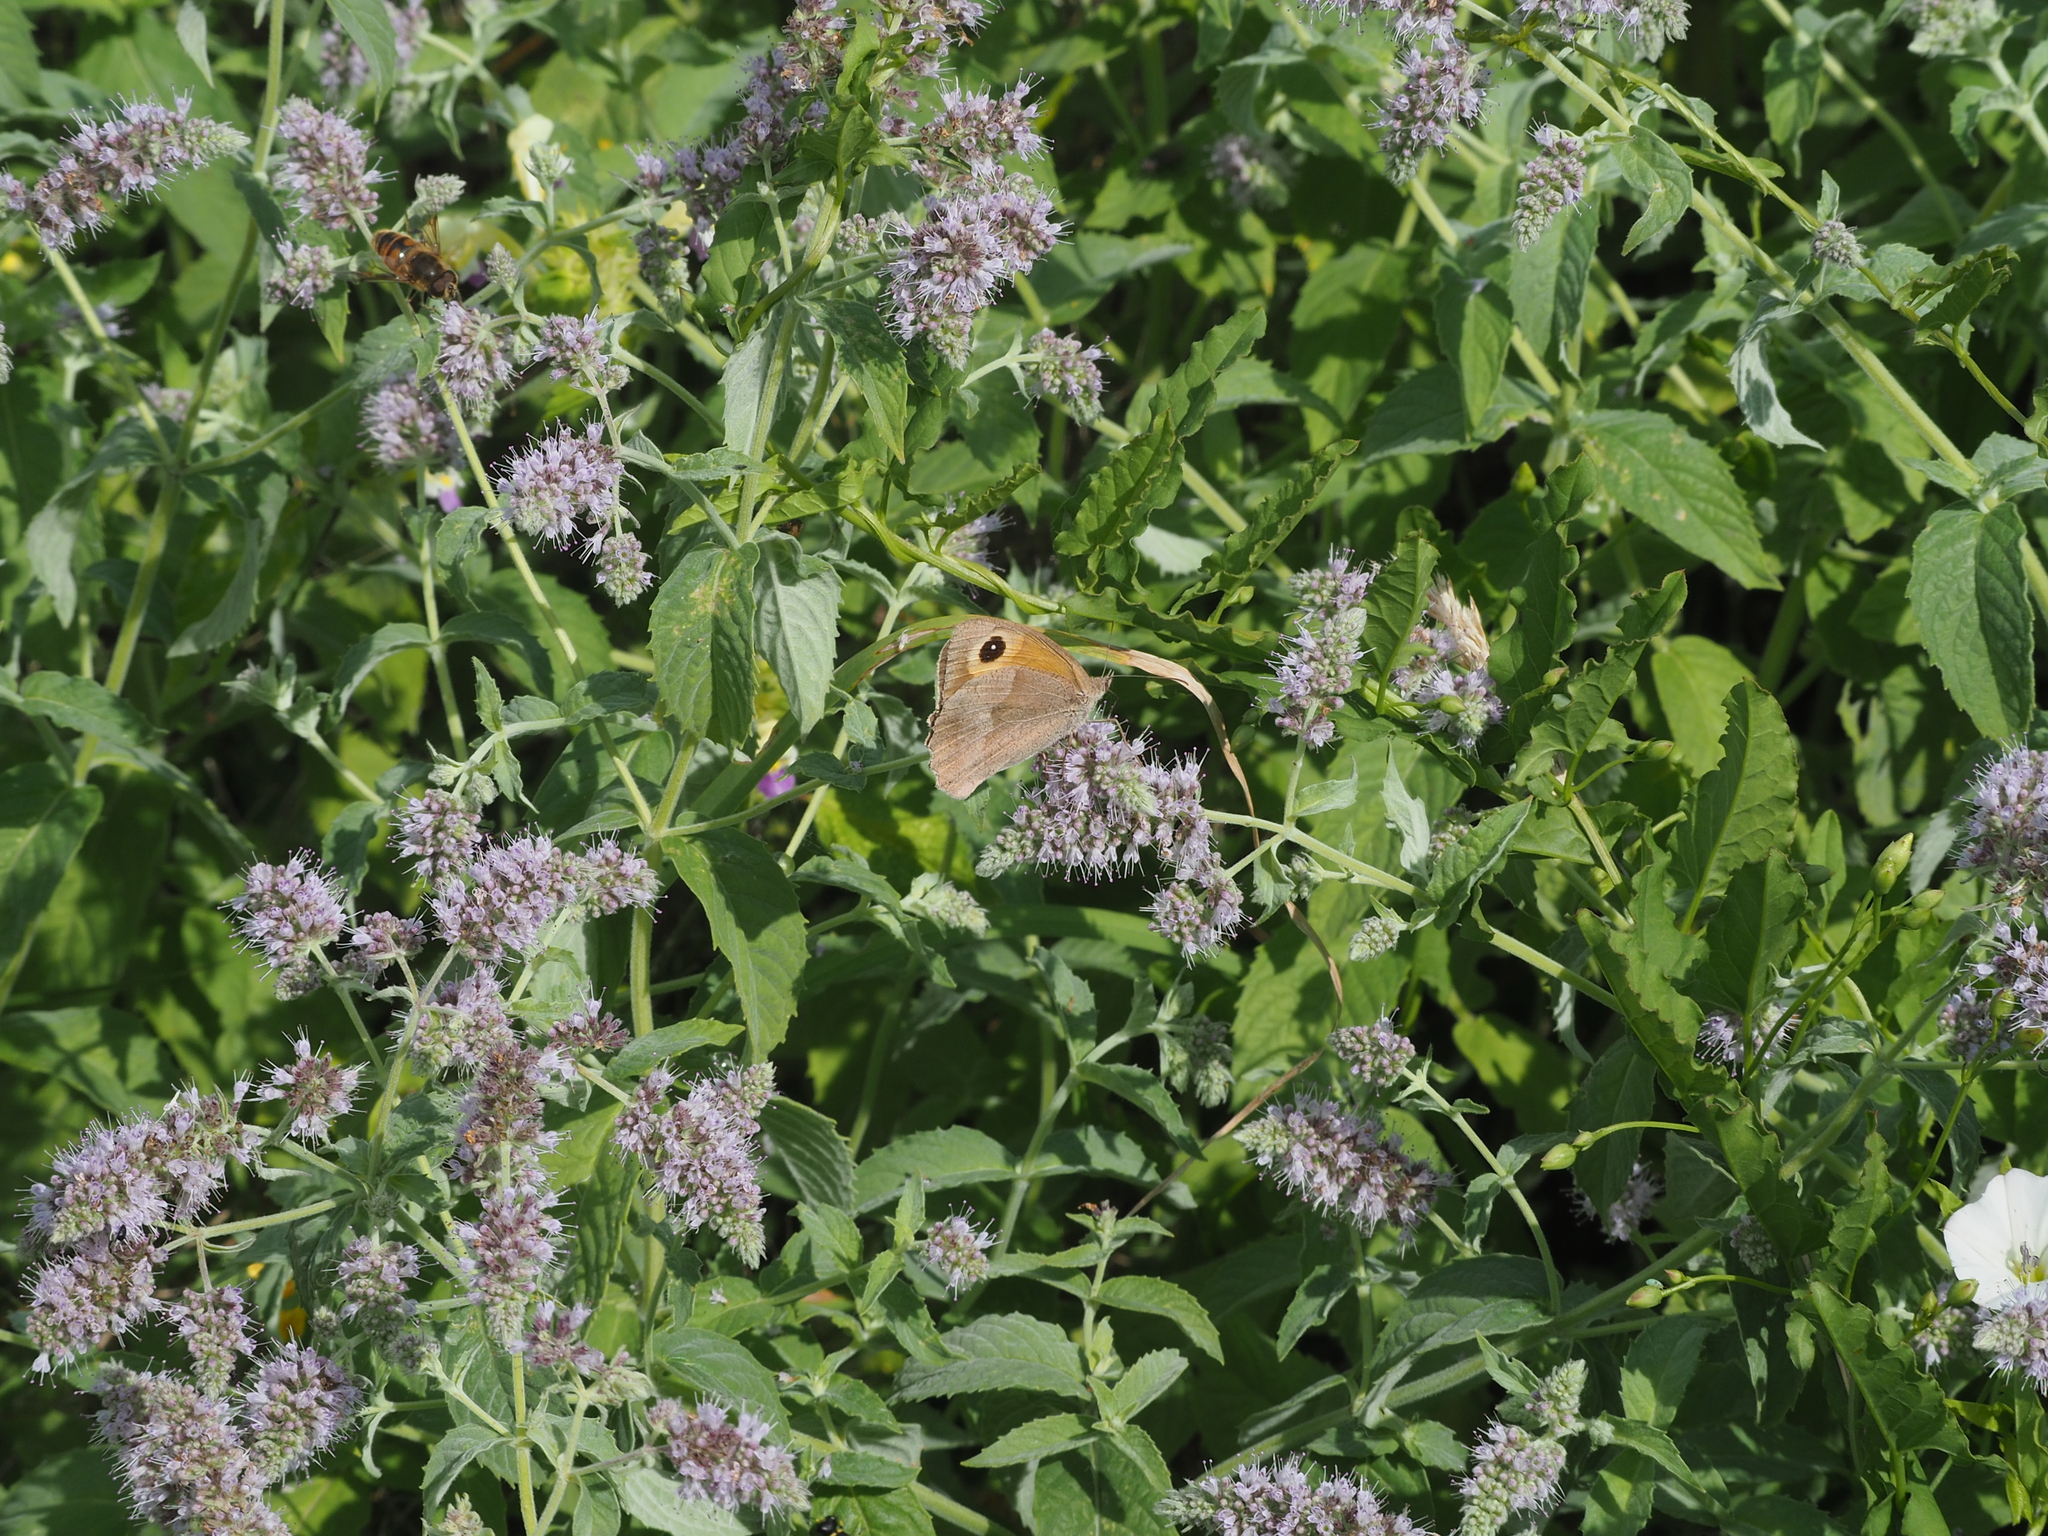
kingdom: Animalia
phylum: Arthropoda
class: Insecta
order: Lepidoptera
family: Nymphalidae
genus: Maniola
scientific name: Maniola jurtina
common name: Meadow brown
